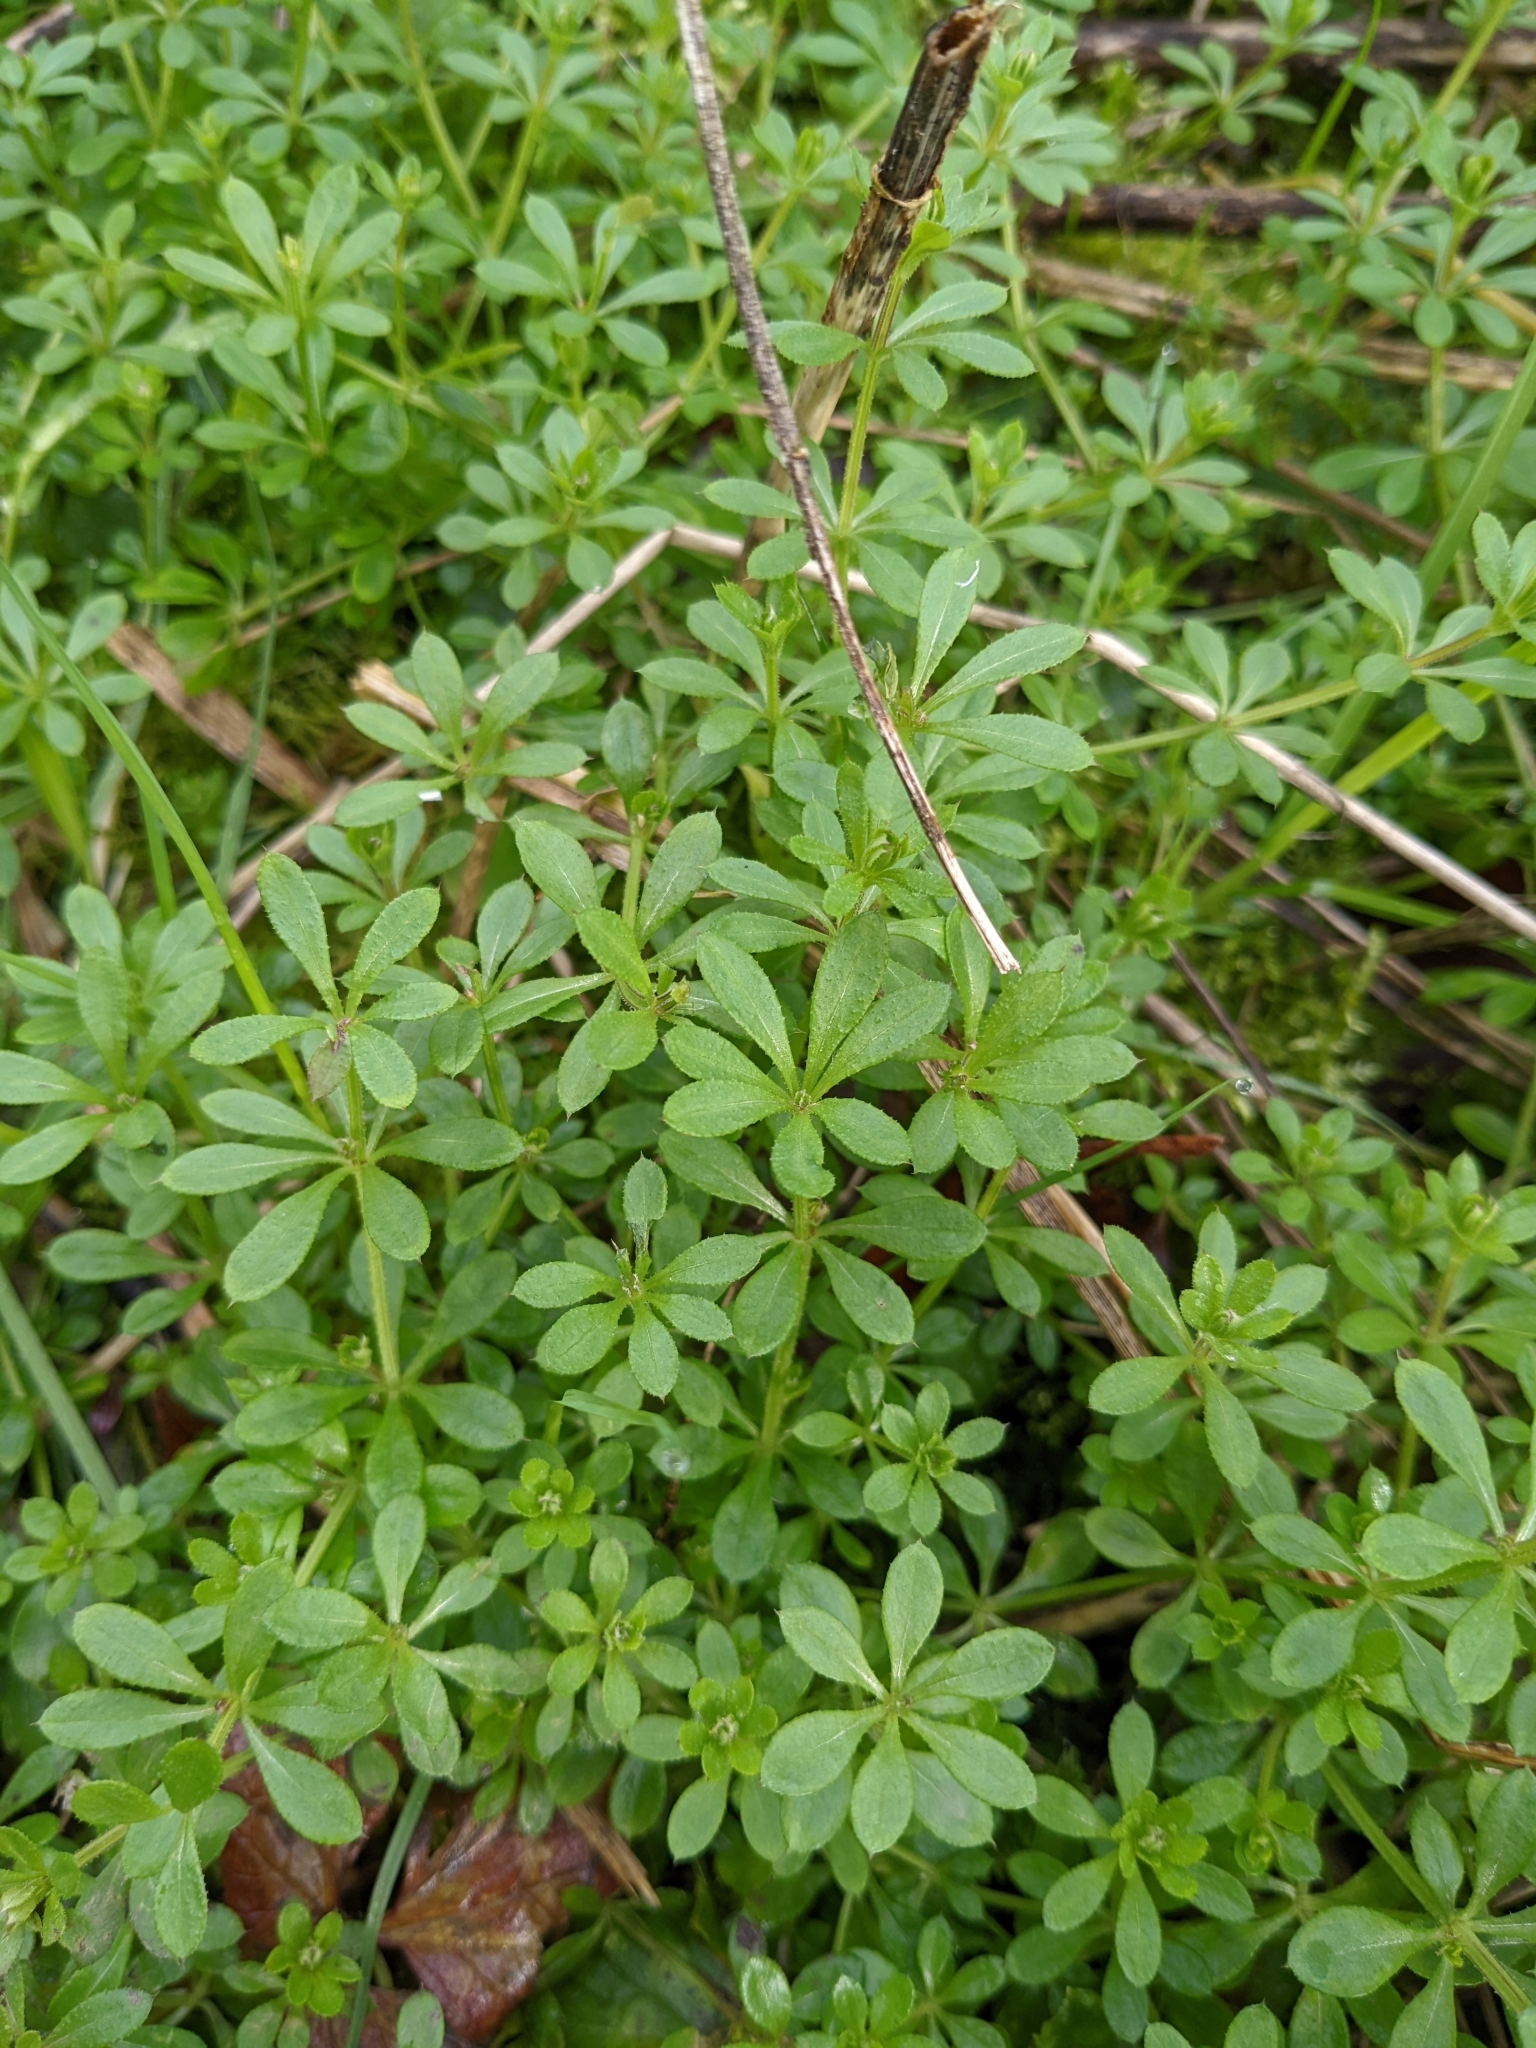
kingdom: Plantae
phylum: Tracheophyta
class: Magnoliopsida
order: Gentianales
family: Rubiaceae
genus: Galium
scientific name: Galium aparine
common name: Cleavers
